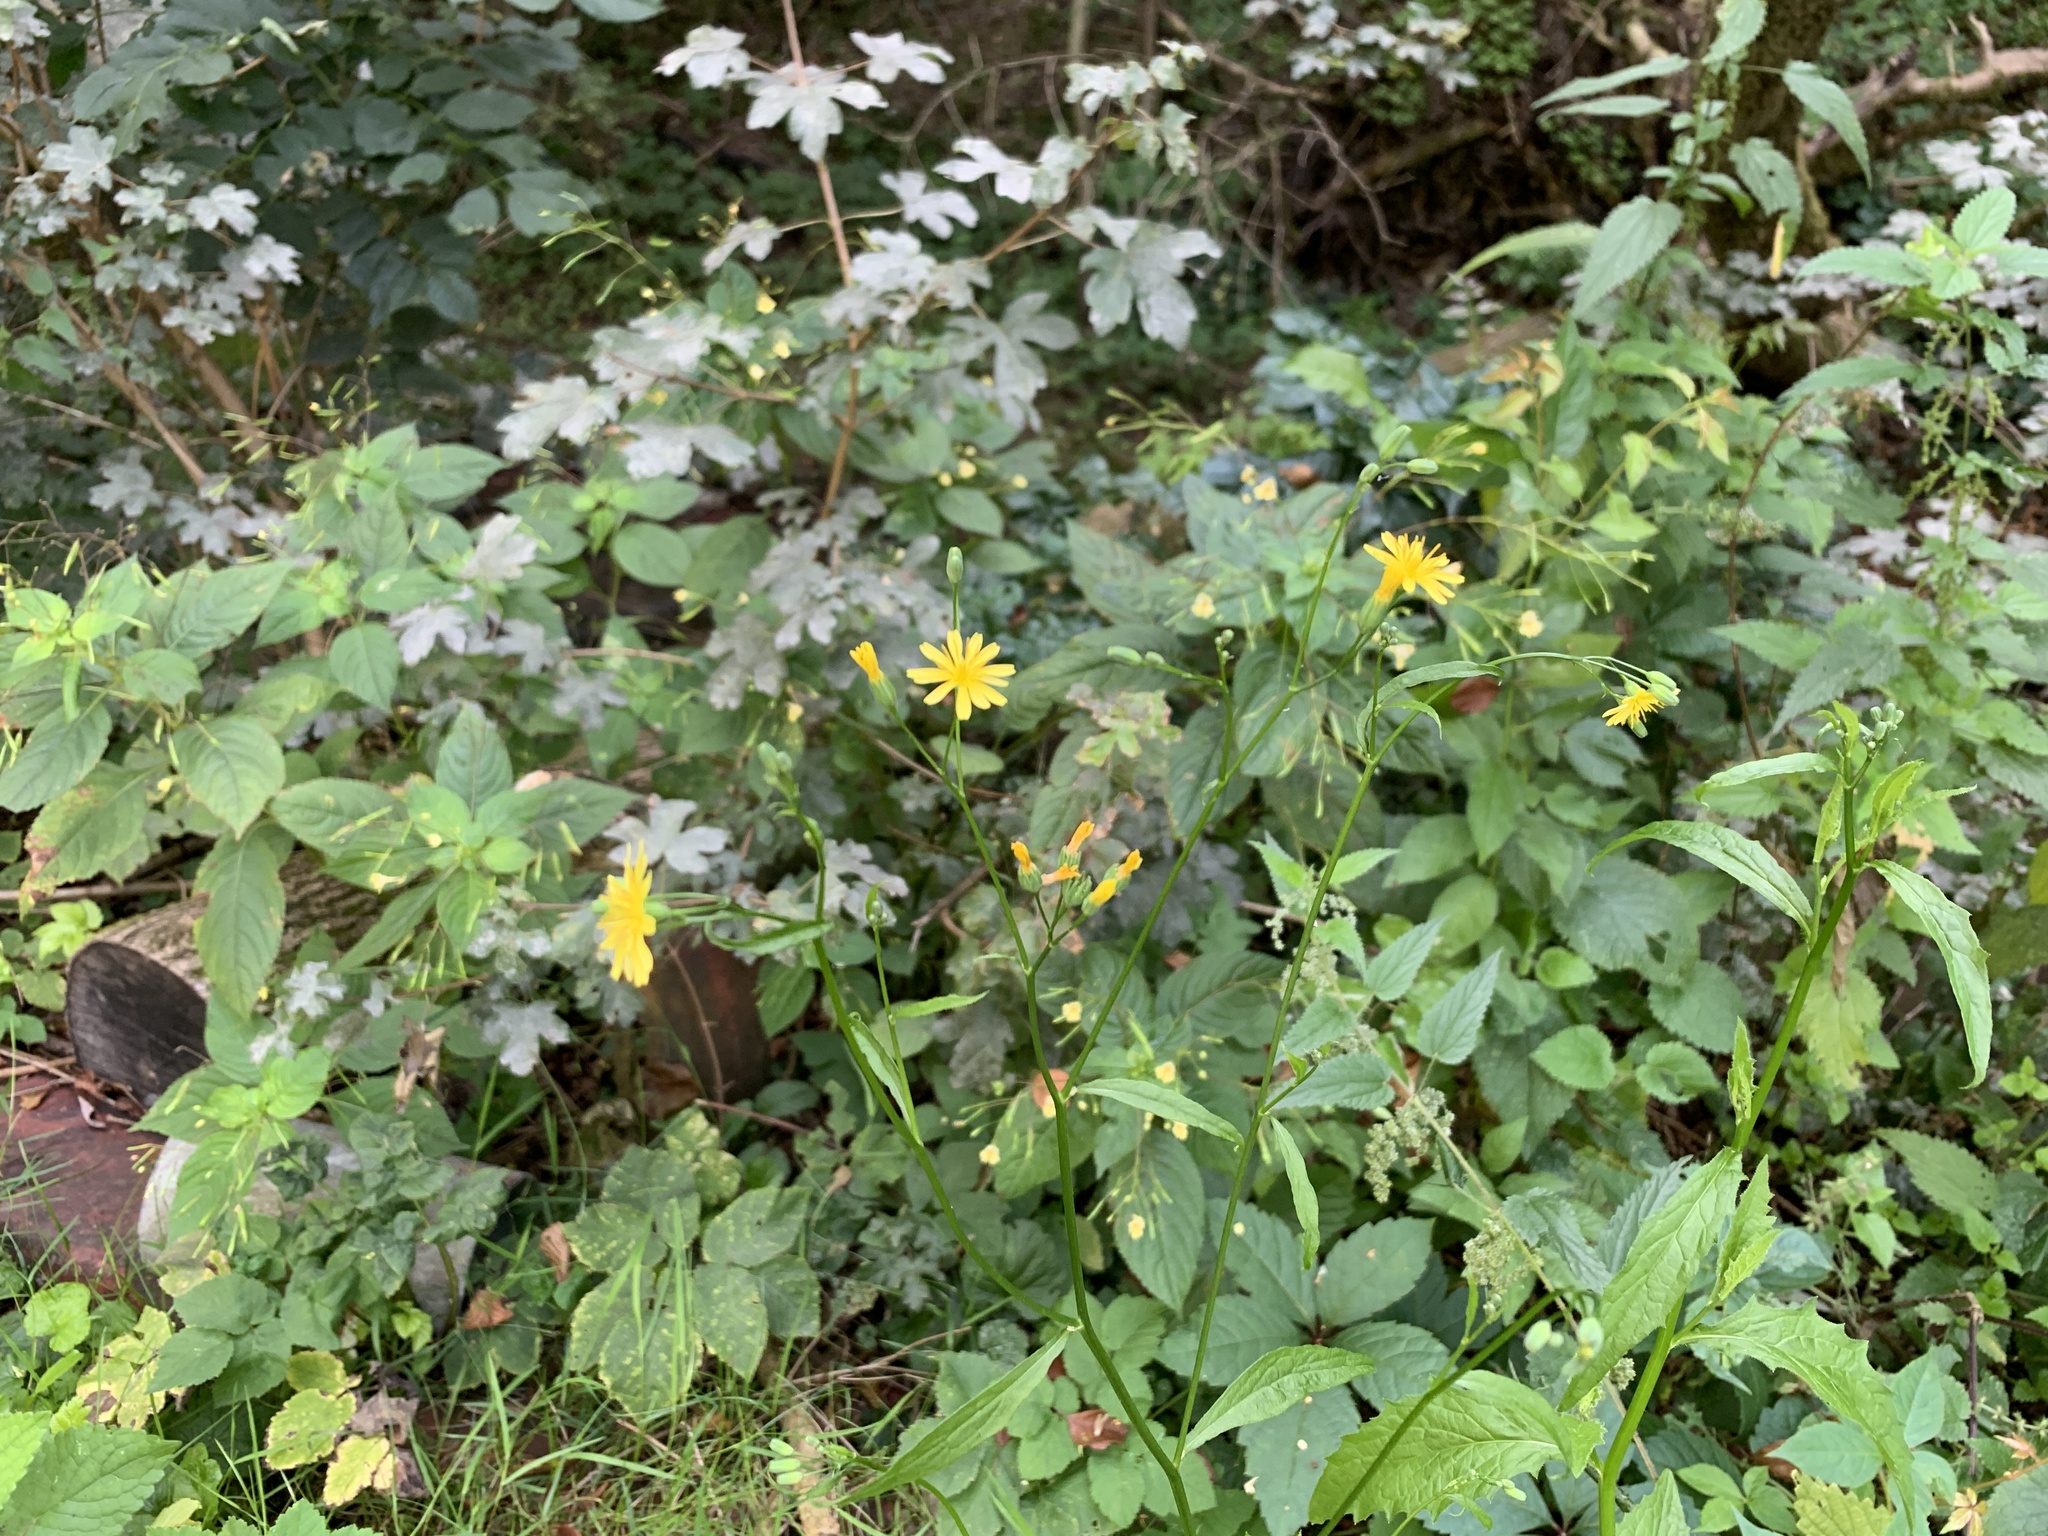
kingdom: Plantae
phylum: Tracheophyta
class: Magnoliopsida
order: Asterales
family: Asteraceae
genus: Lapsana
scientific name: Lapsana communis
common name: Nipplewort
